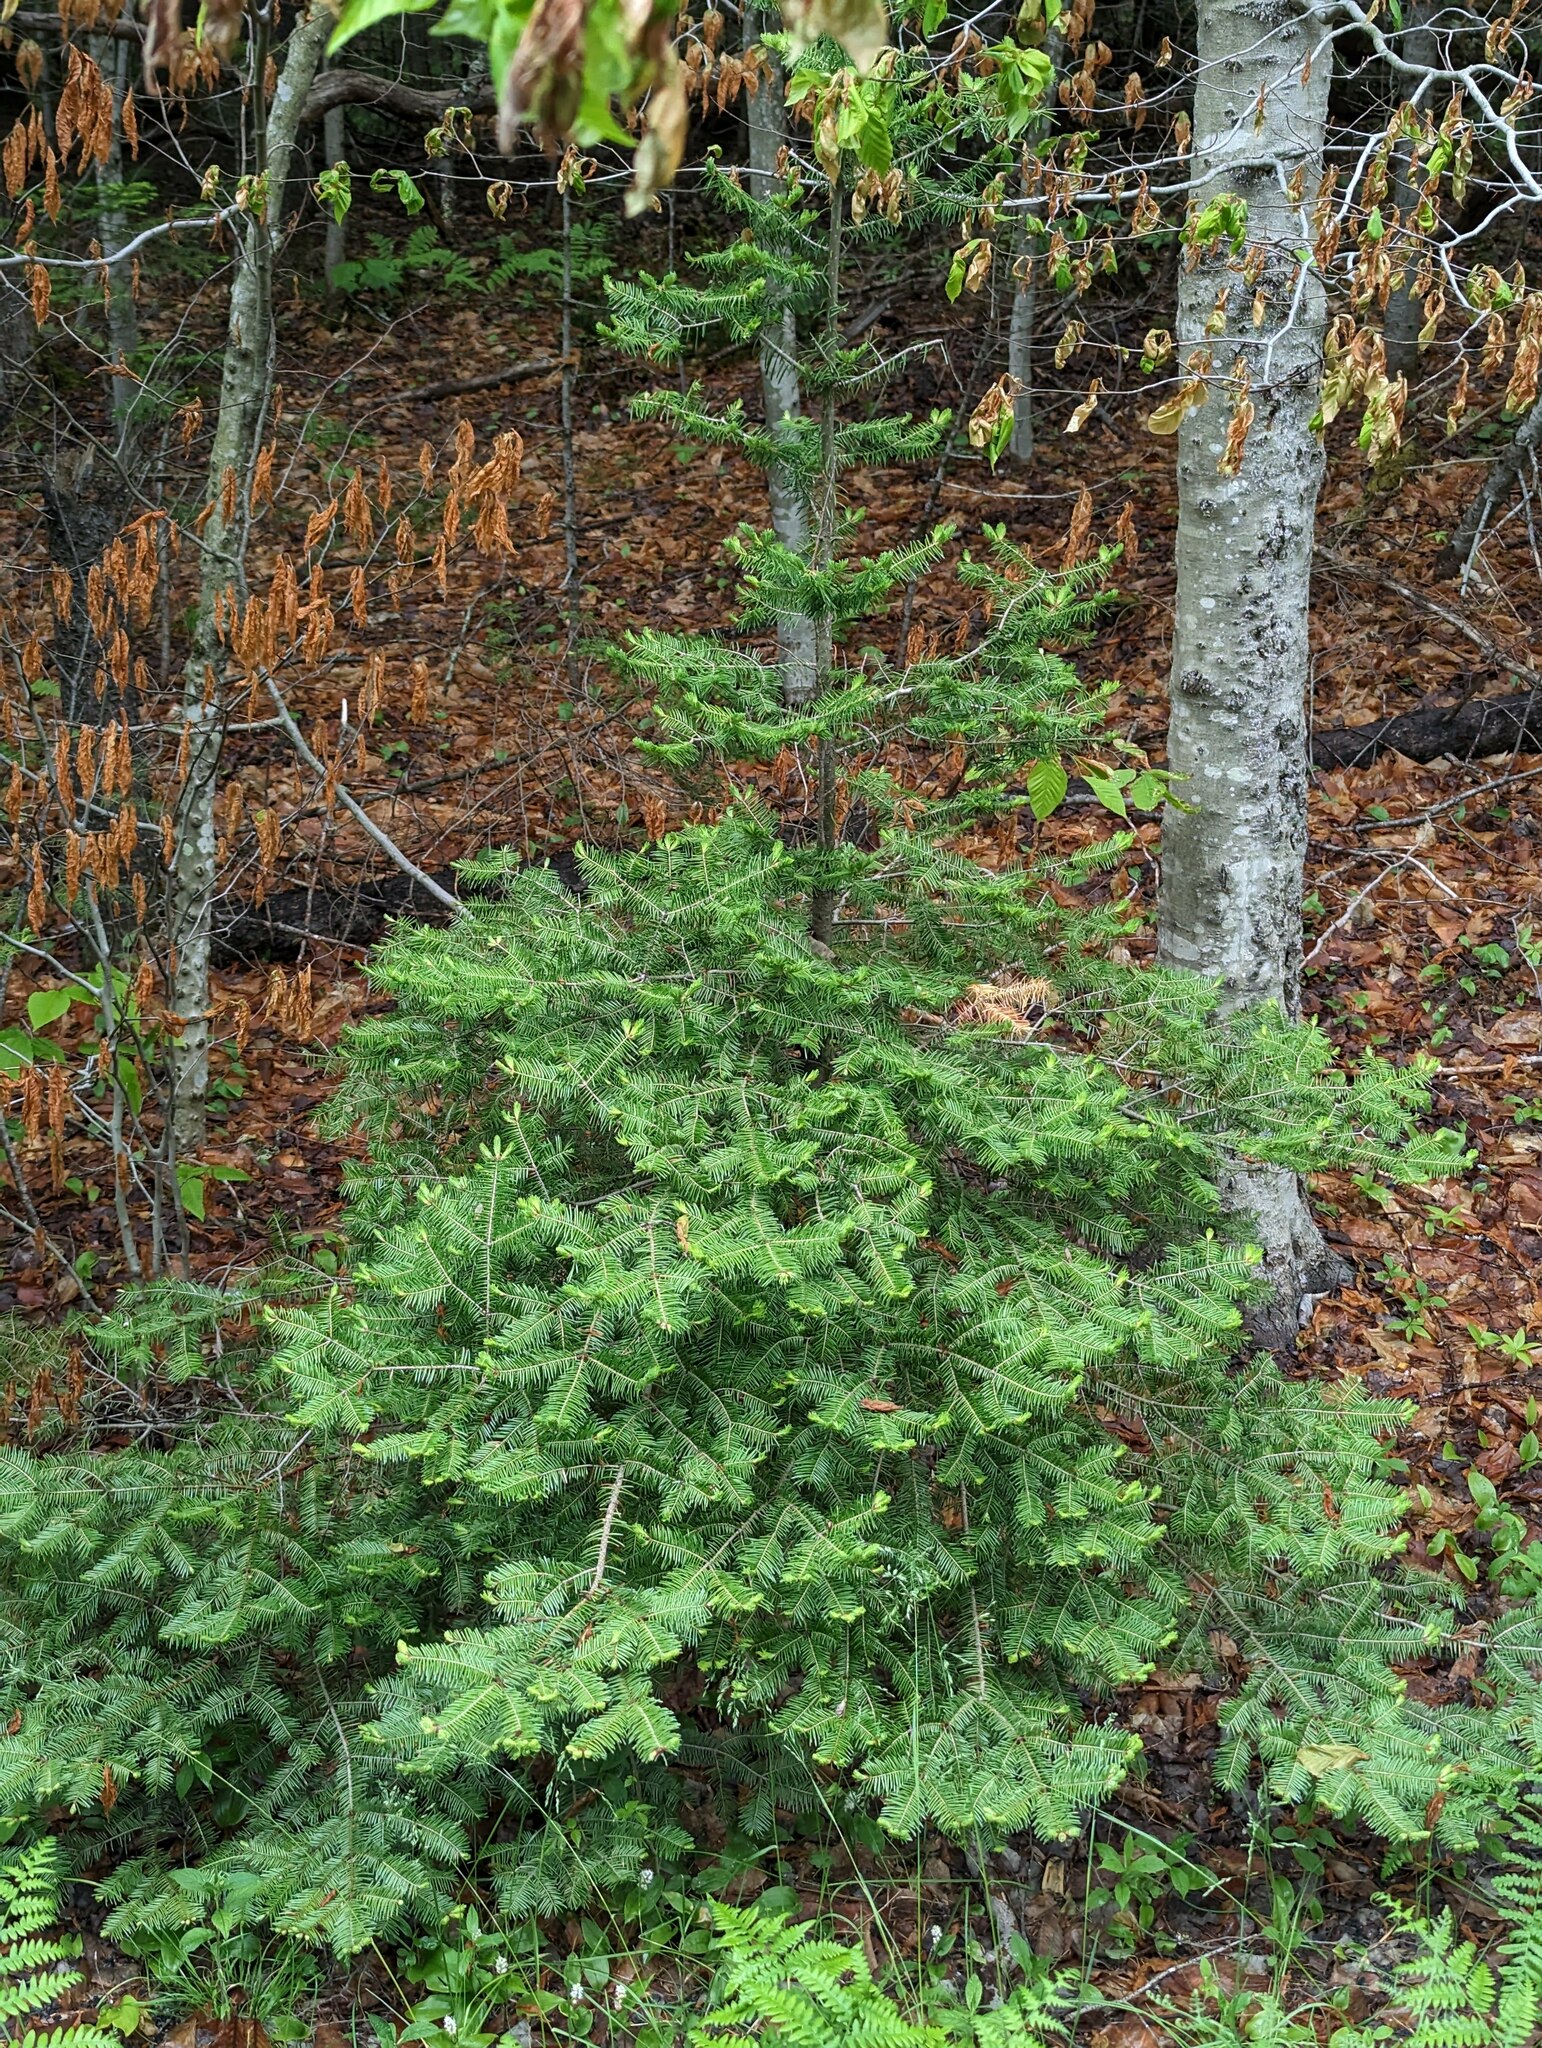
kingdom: Plantae
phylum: Tracheophyta
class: Pinopsida
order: Pinales
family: Pinaceae
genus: Abies
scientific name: Abies balsamea
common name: Balsam fir
